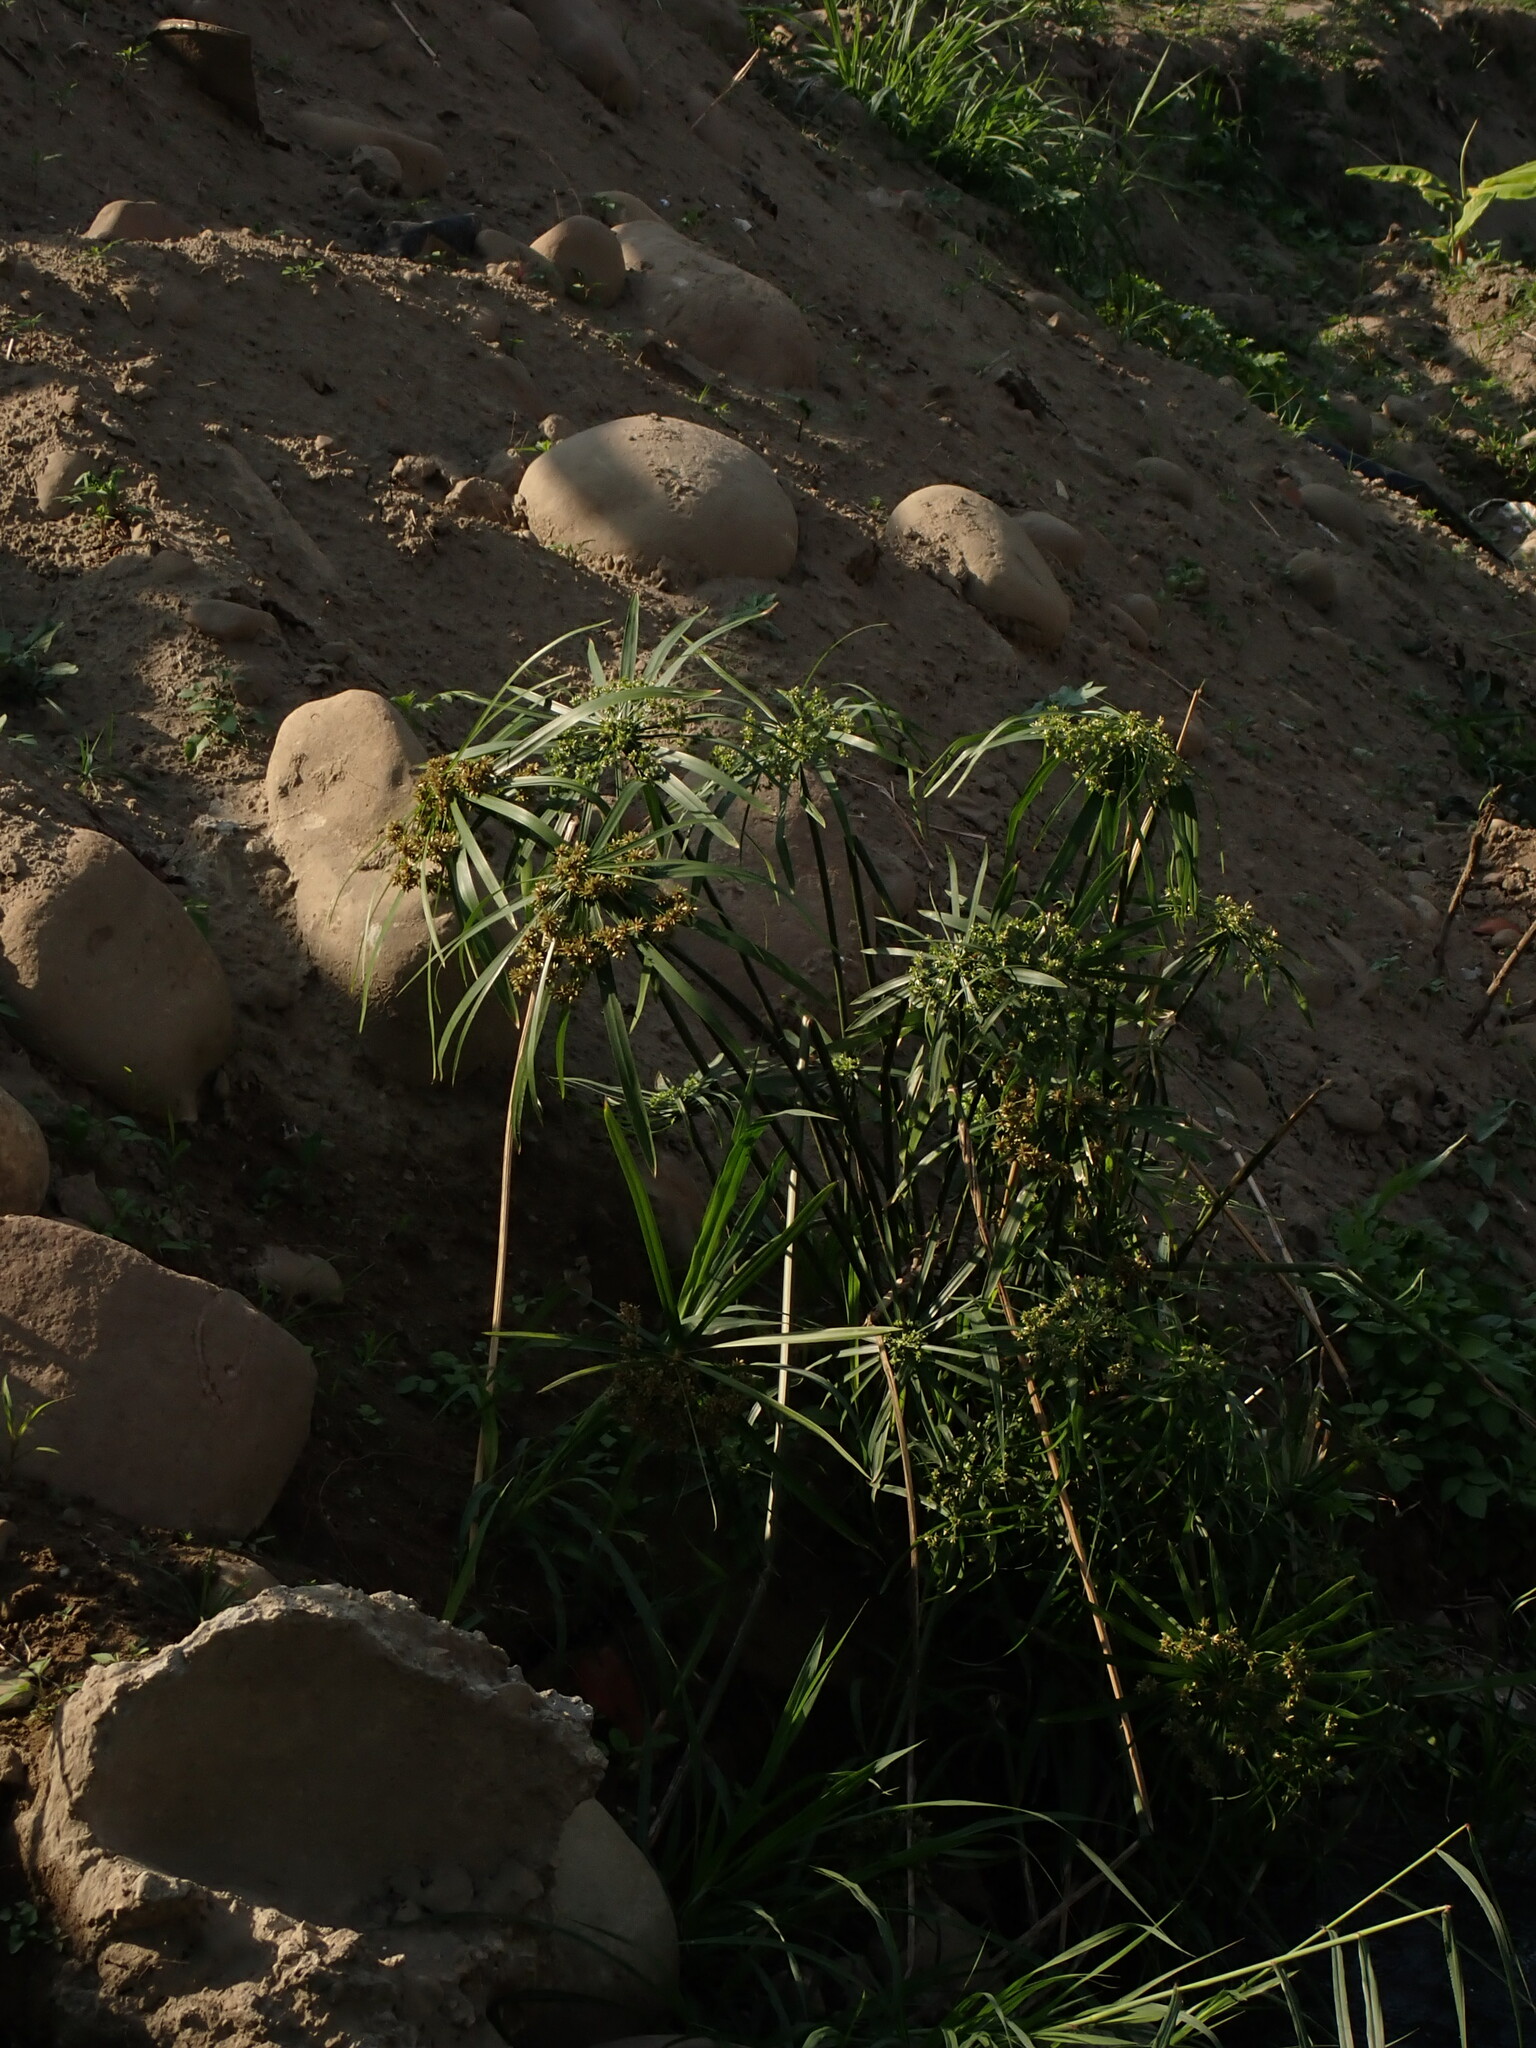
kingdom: Plantae
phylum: Tracheophyta
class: Liliopsida
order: Poales
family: Cyperaceae
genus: Cyperus
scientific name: Cyperus alternifolius
